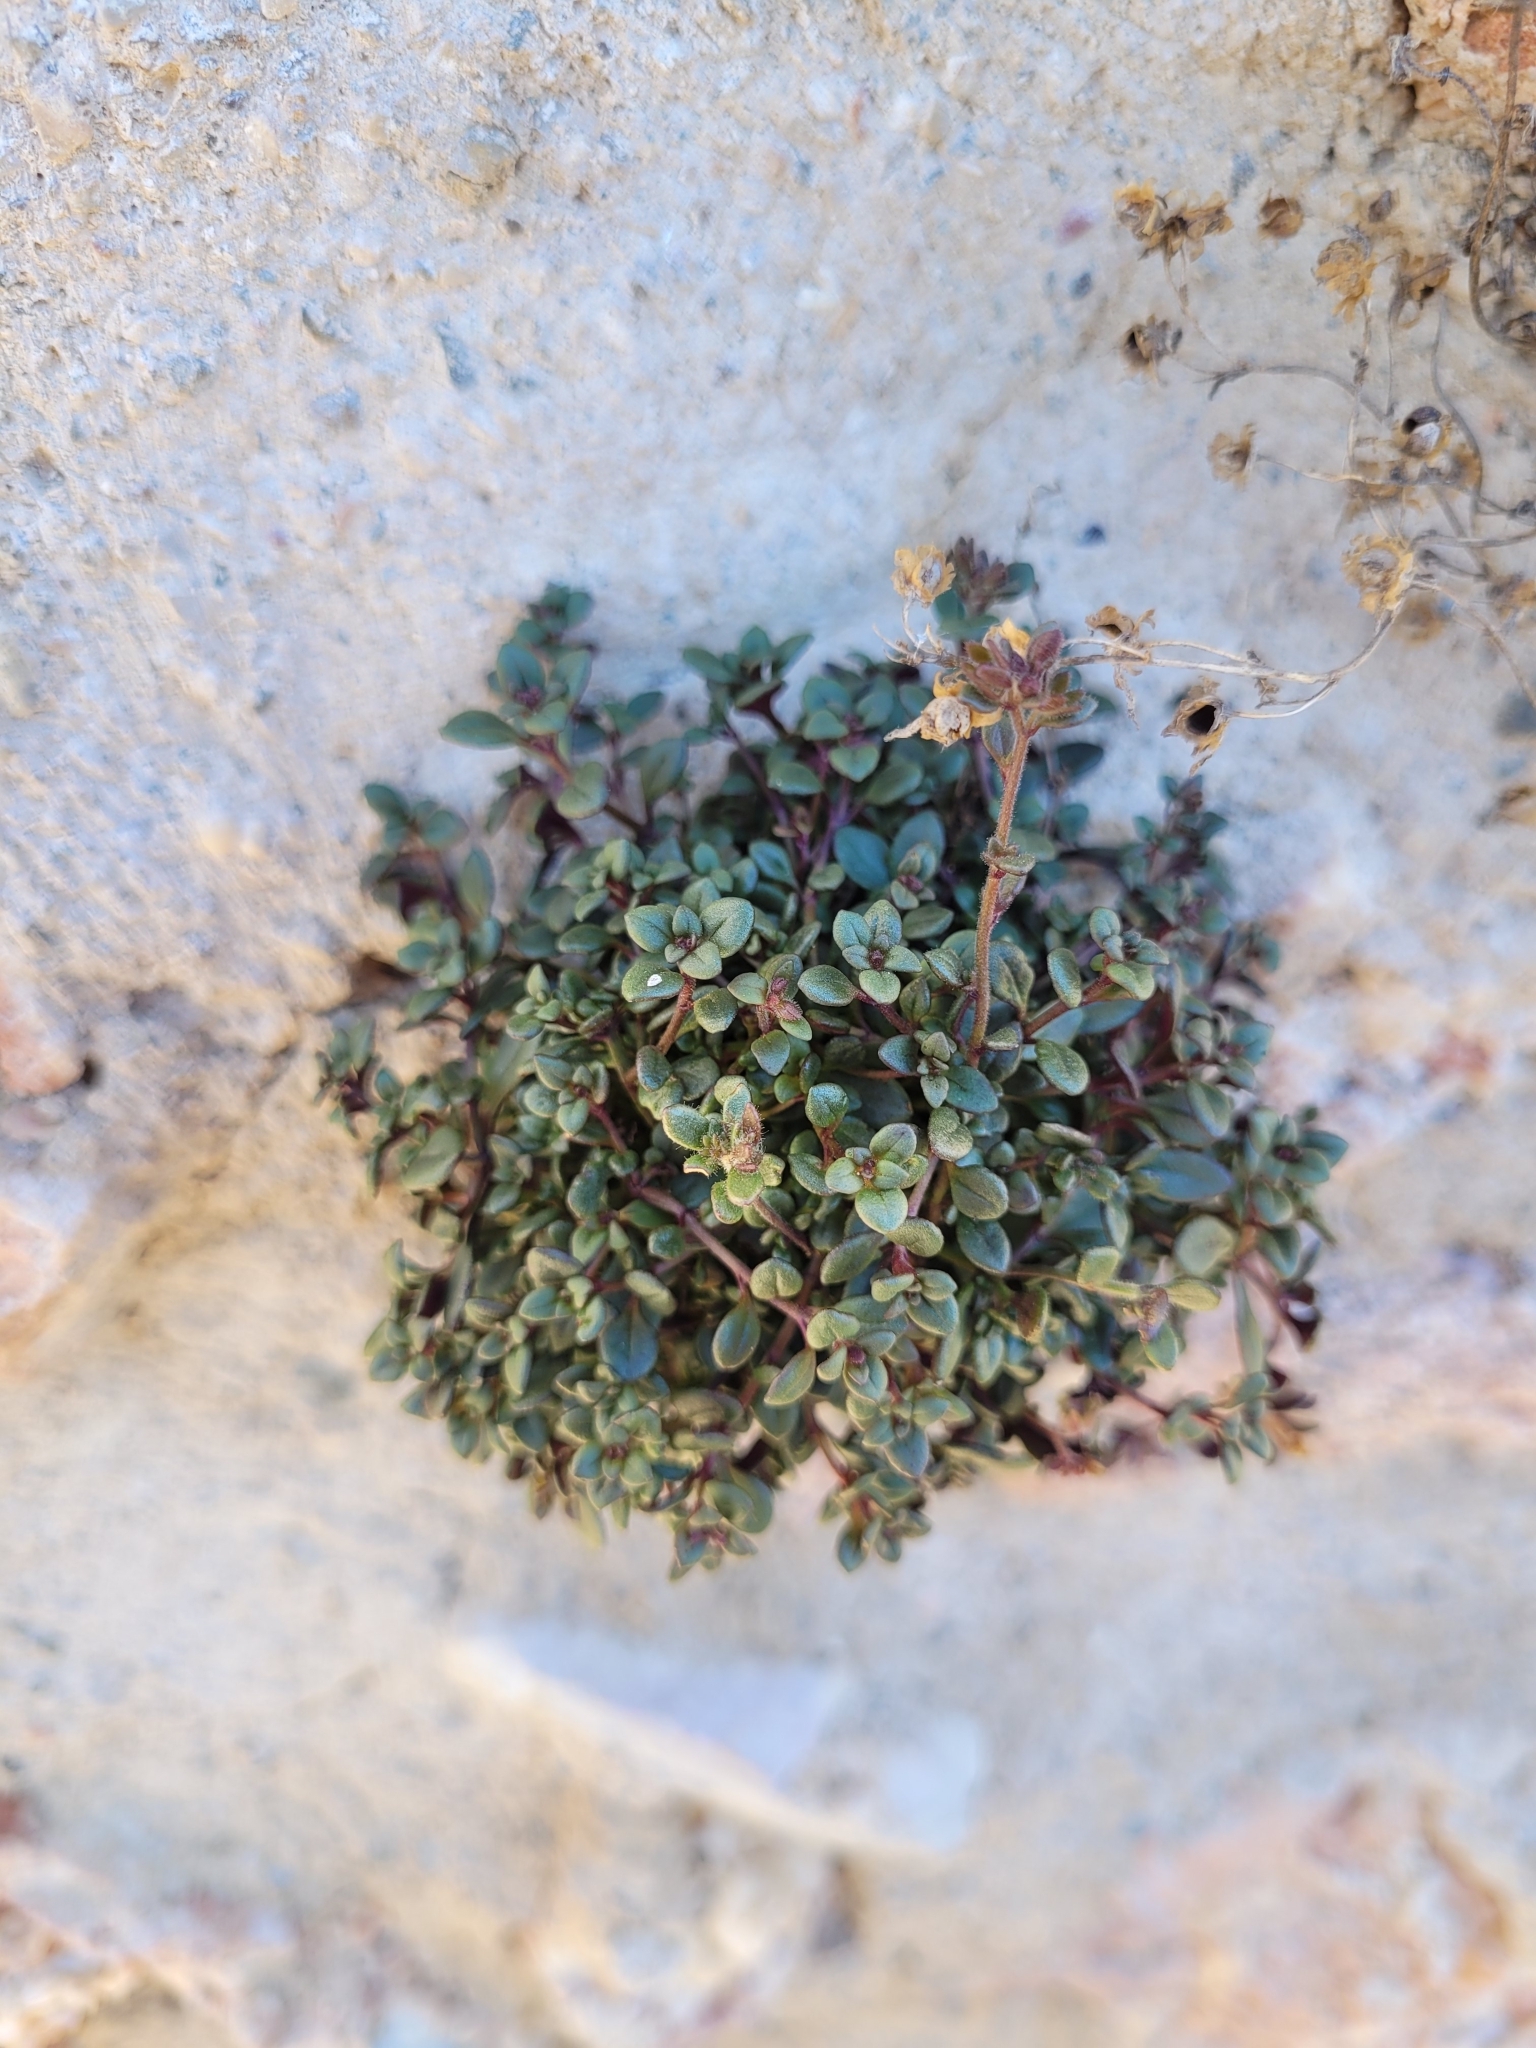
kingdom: Plantae
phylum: Tracheophyta
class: Magnoliopsida
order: Lamiales
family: Plantaginaceae
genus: Chaenorhinum
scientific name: Chaenorhinum origanifolium
